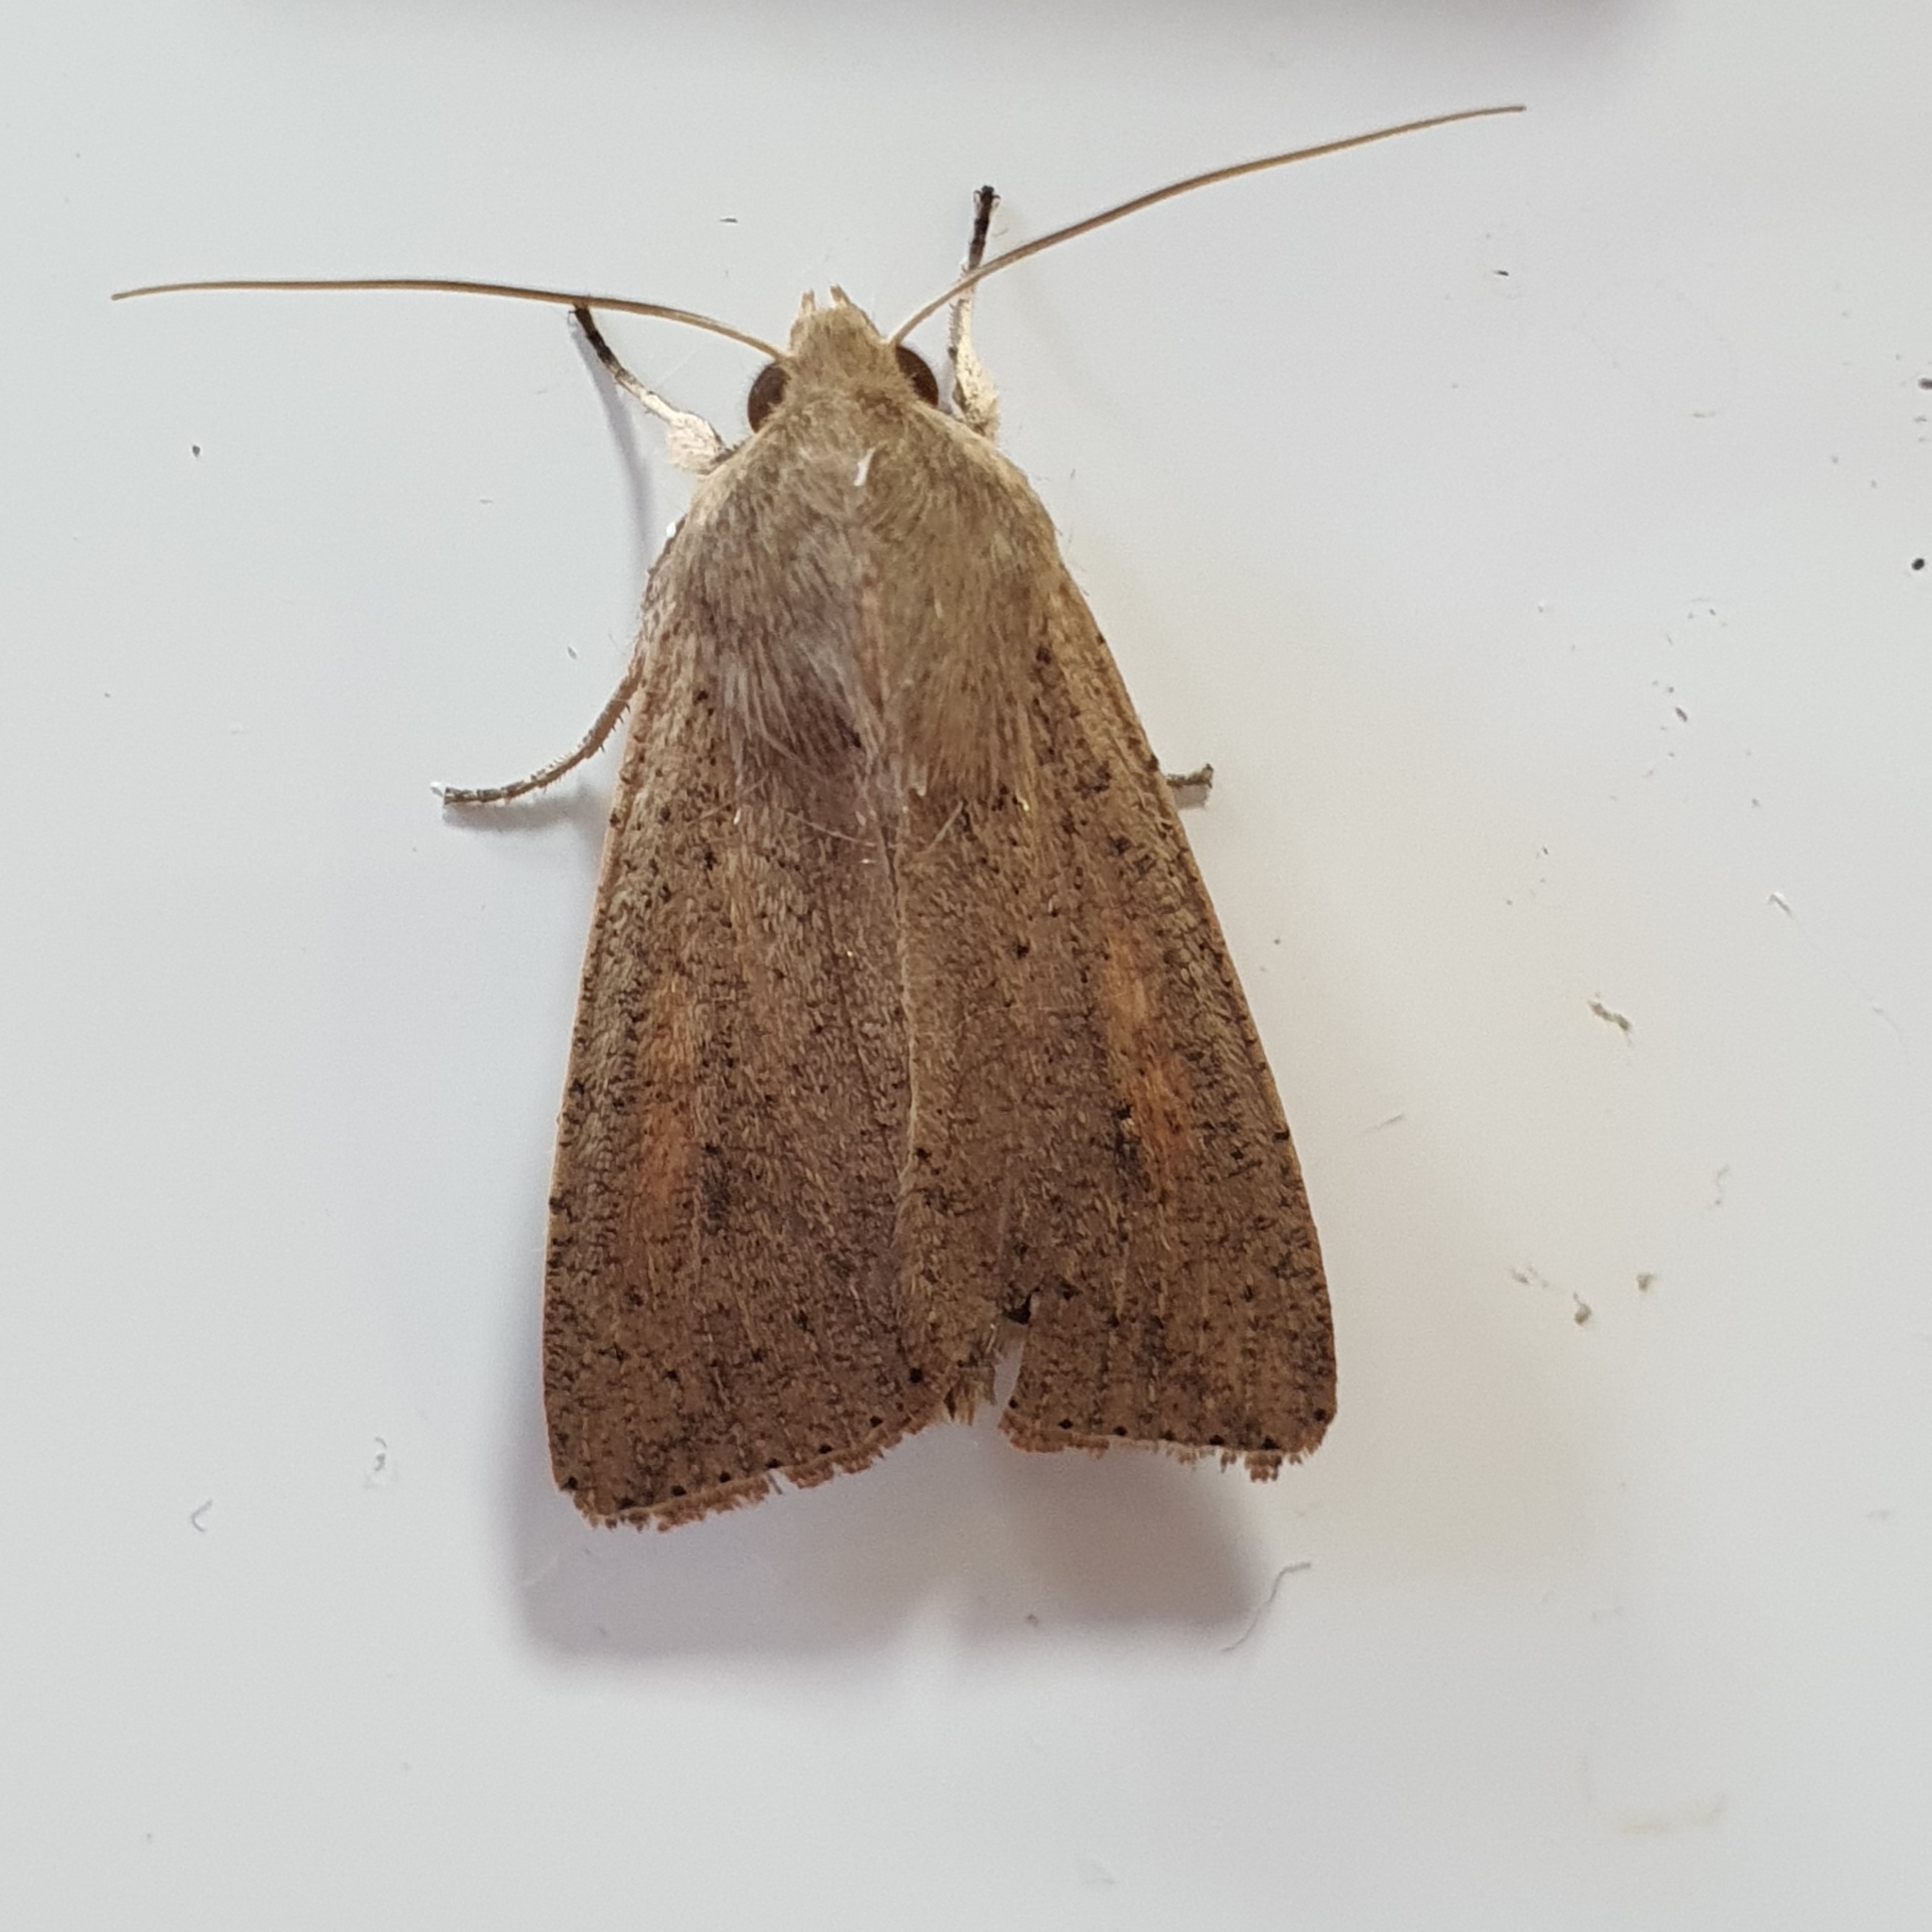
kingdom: Animalia
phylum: Arthropoda
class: Insecta
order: Lepidoptera
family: Noctuidae
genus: Mythimna
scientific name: Mythimna convecta
